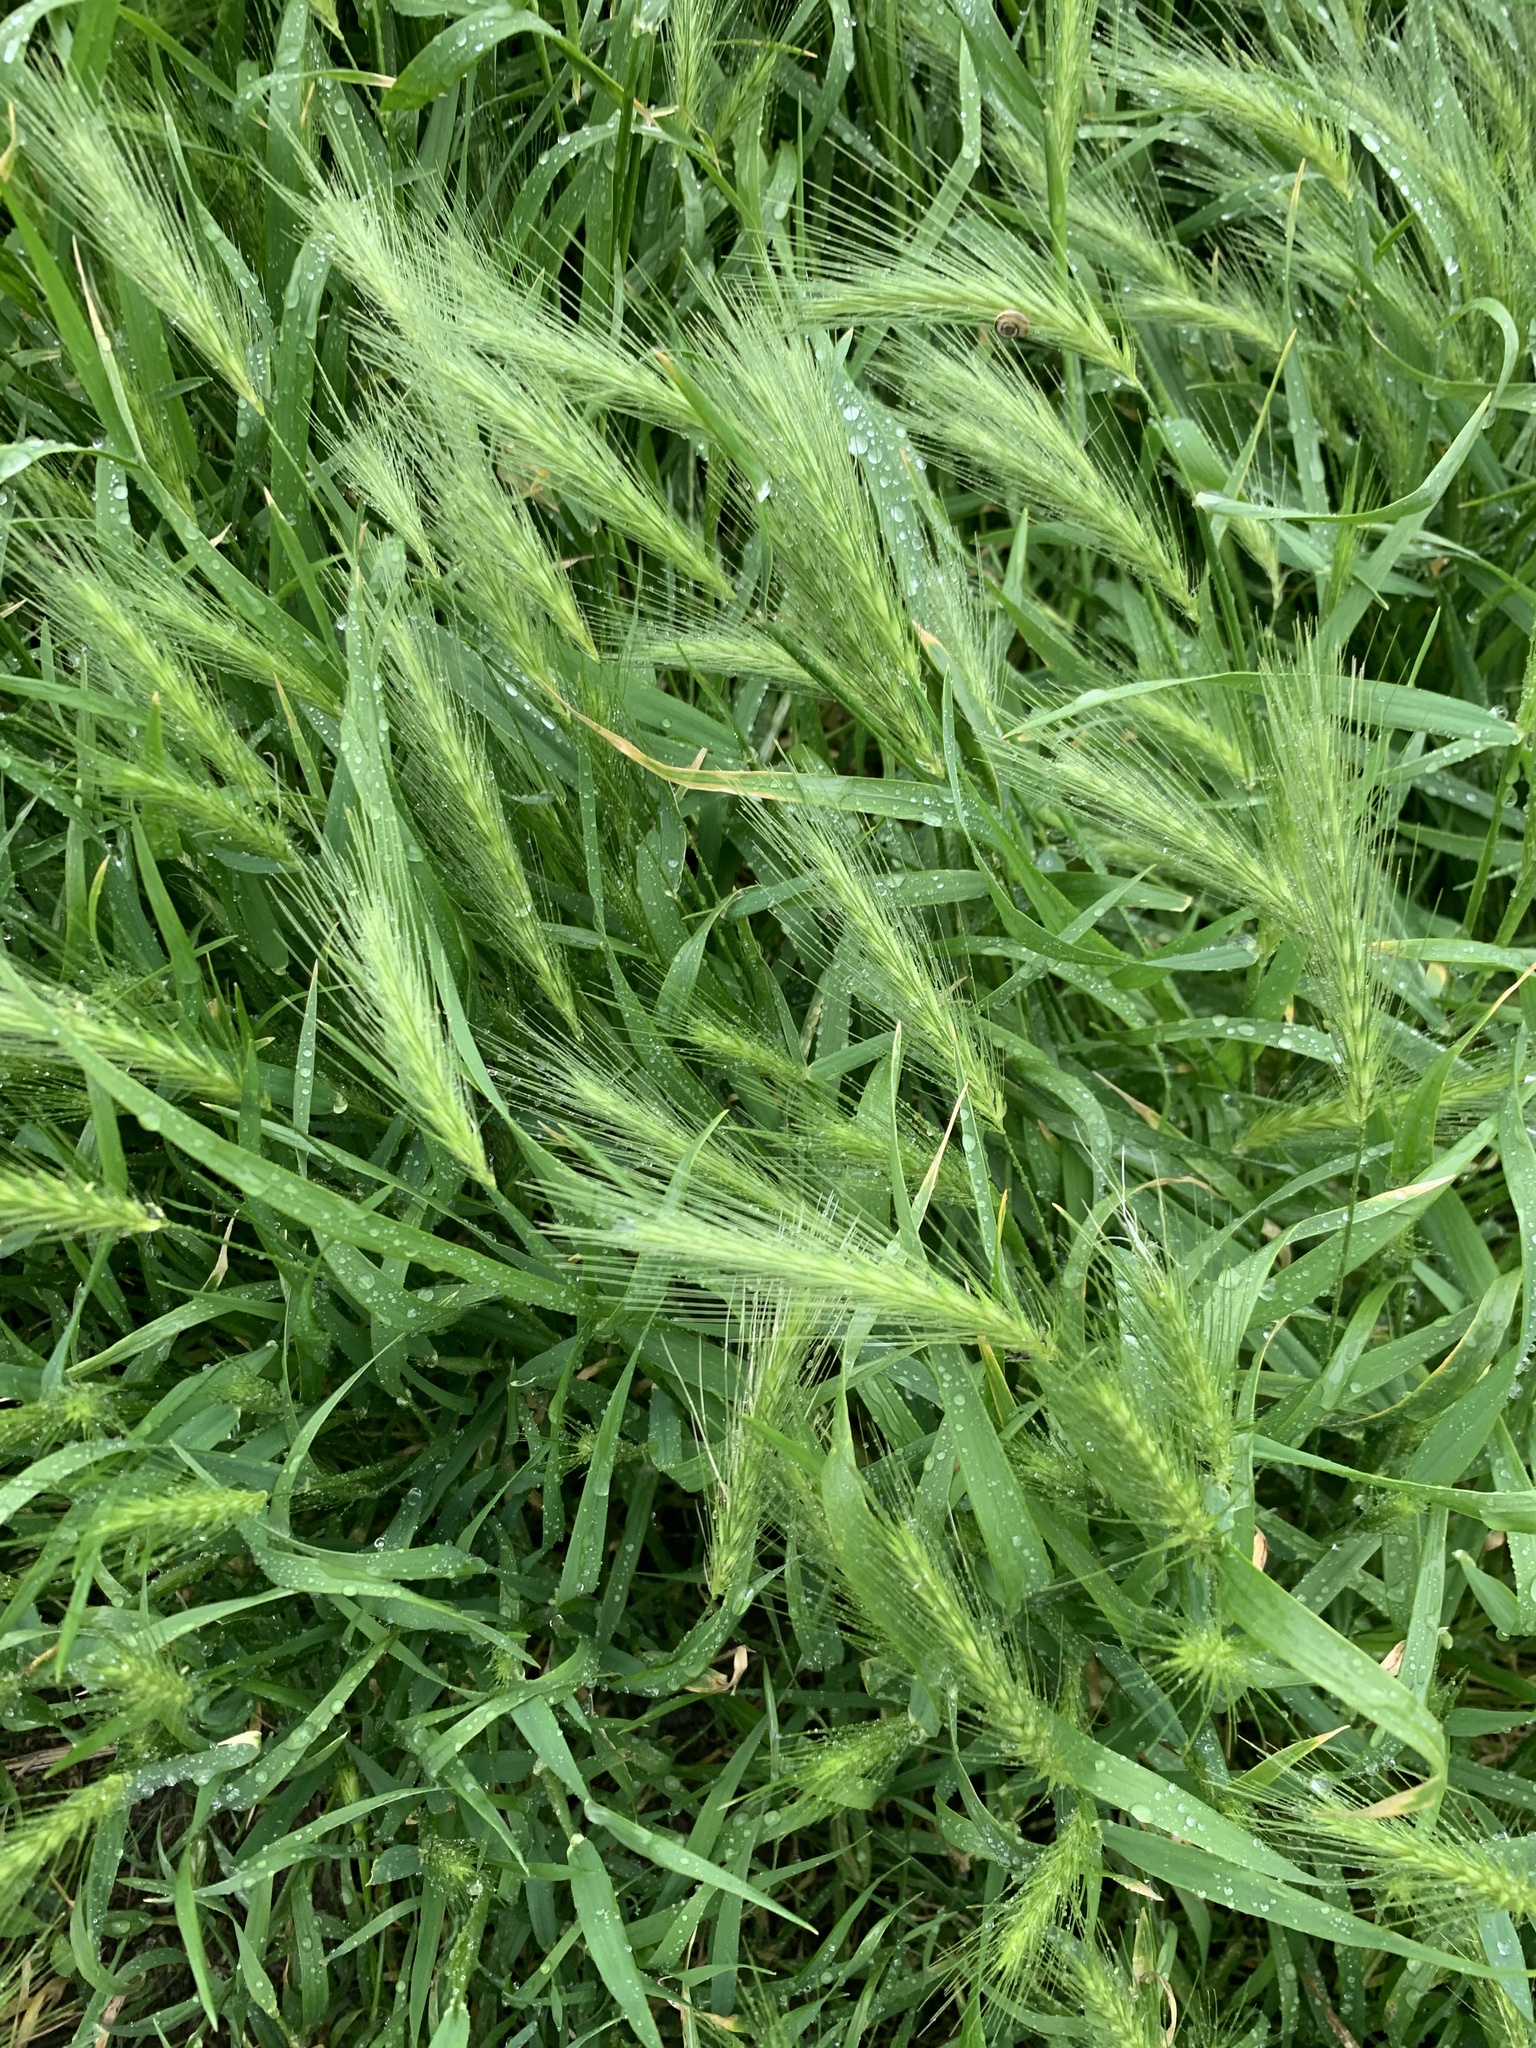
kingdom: Plantae
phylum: Tracheophyta
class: Liliopsida
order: Poales
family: Poaceae
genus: Hordeum
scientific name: Hordeum murinum
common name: Wall barley
